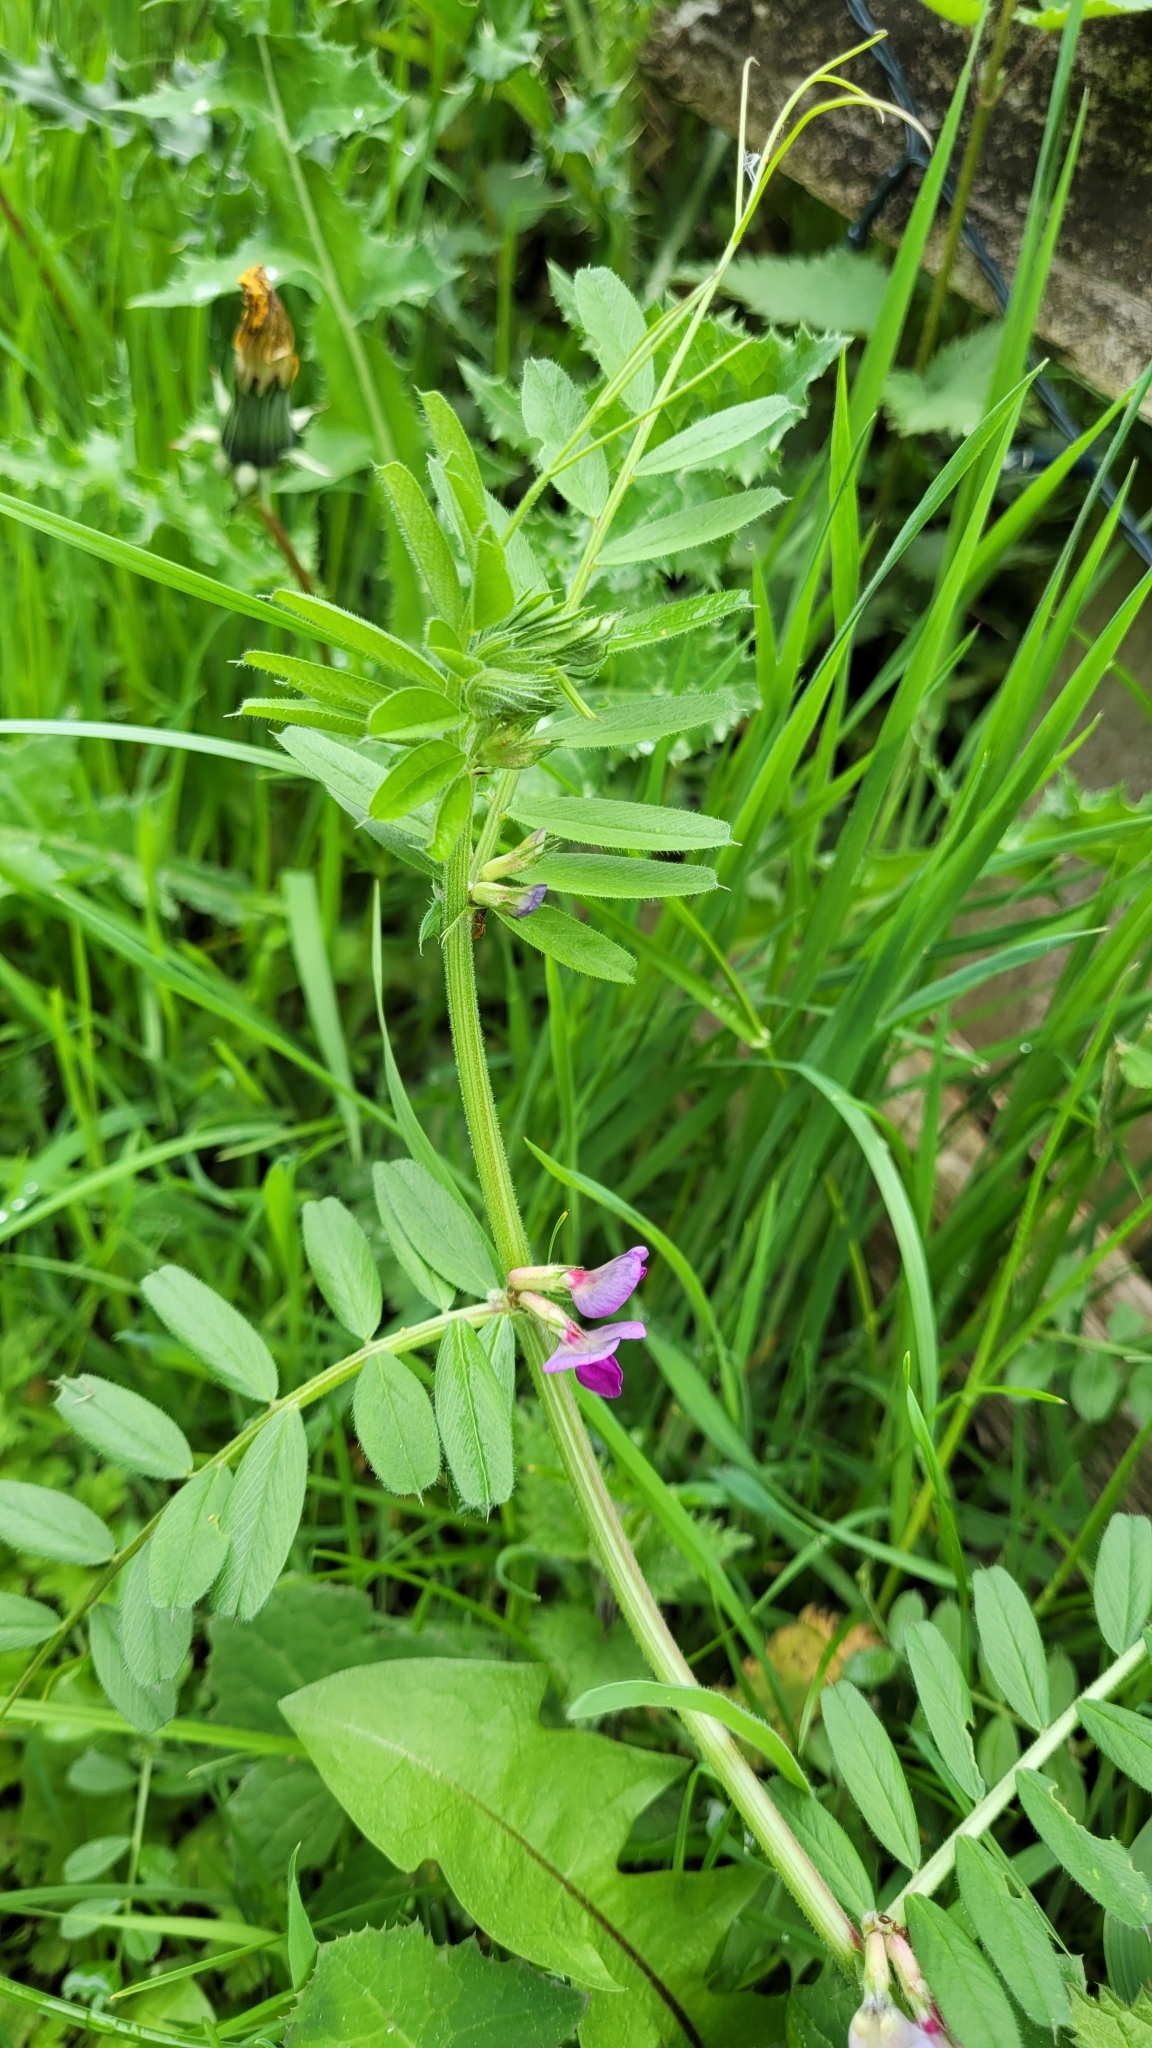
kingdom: Plantae
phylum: Tracheophyta
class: Magnoliopsida
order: Fabales
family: Fabaceae
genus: Vicia
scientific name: Vicia sativa
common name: Garden vetch
